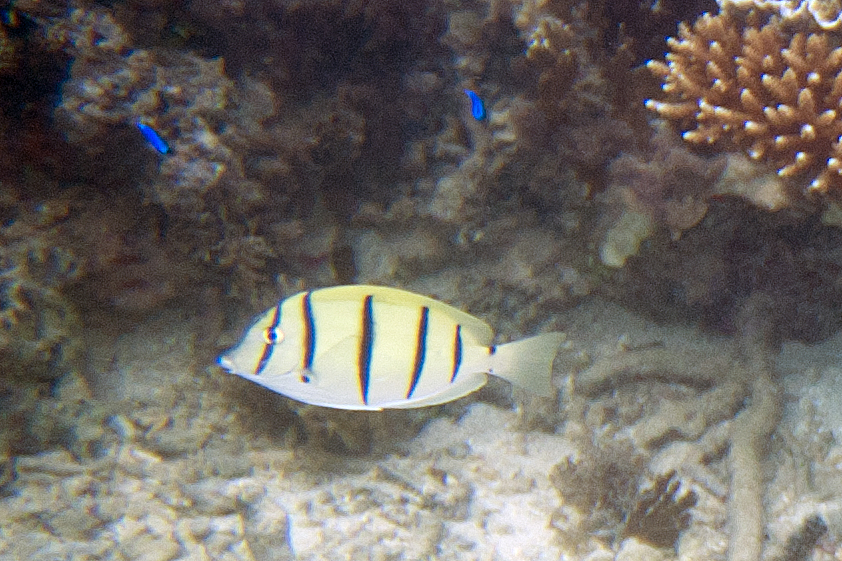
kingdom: Animalia
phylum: Chordata
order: Perciformes
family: Acanthuridae
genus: Acanthurus
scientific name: Acanthurus triostegus
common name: Convict surgeonfish
